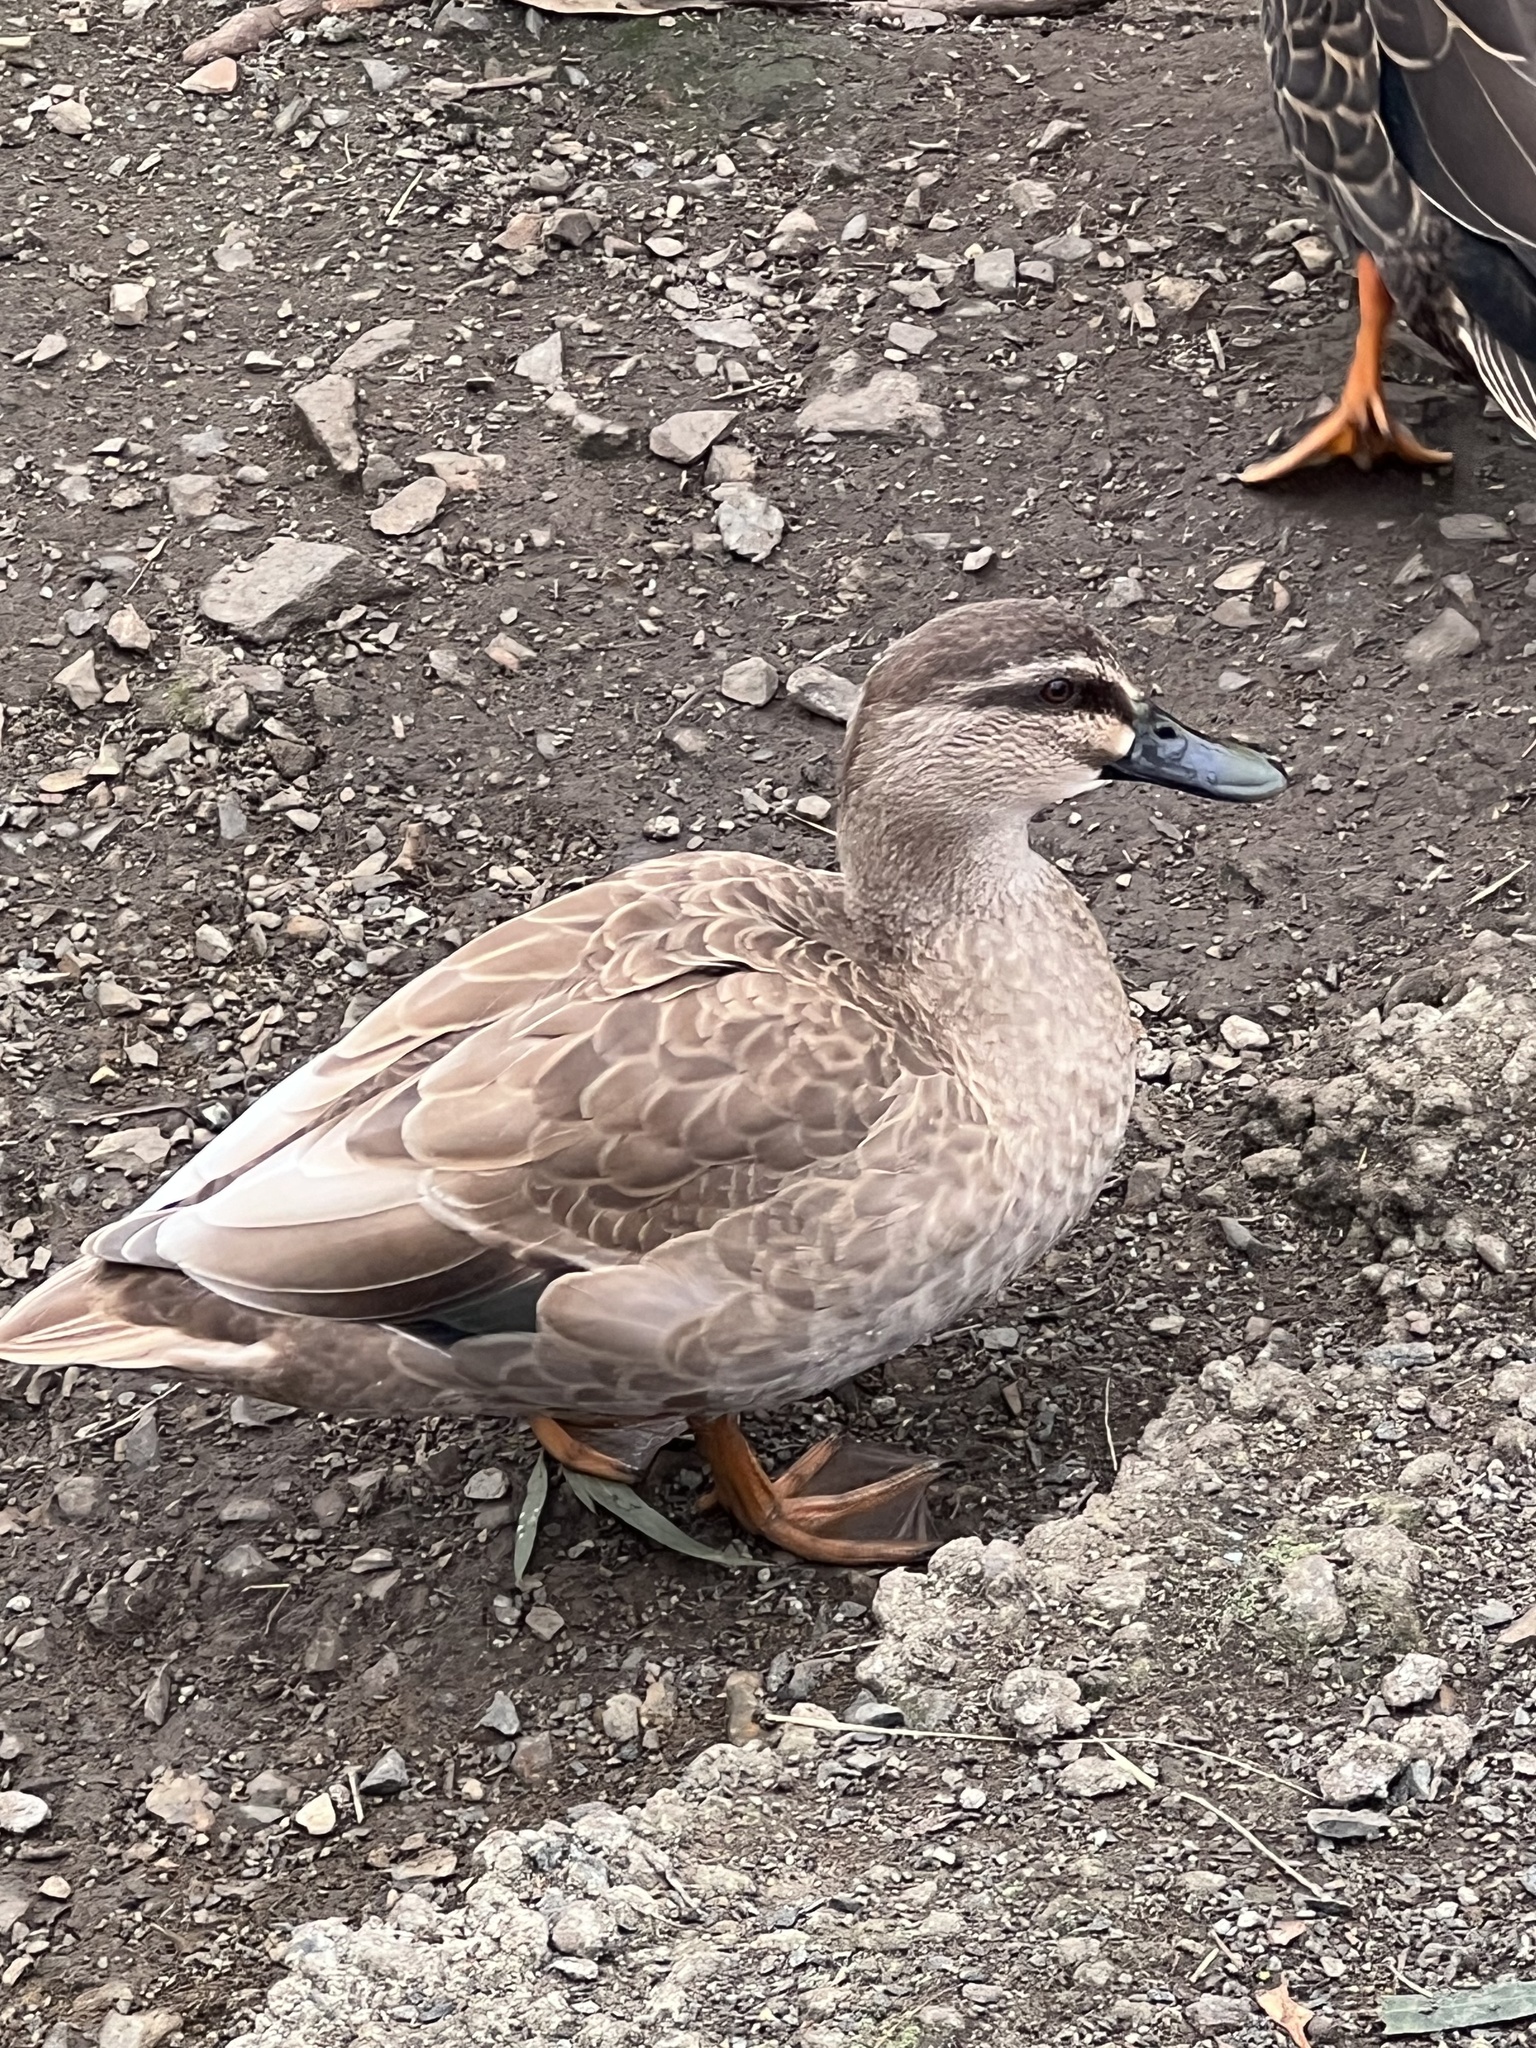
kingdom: Animalia
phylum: Chordata
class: Aves
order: Anseriformes
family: Anatidae
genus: Anas
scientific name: Anas
